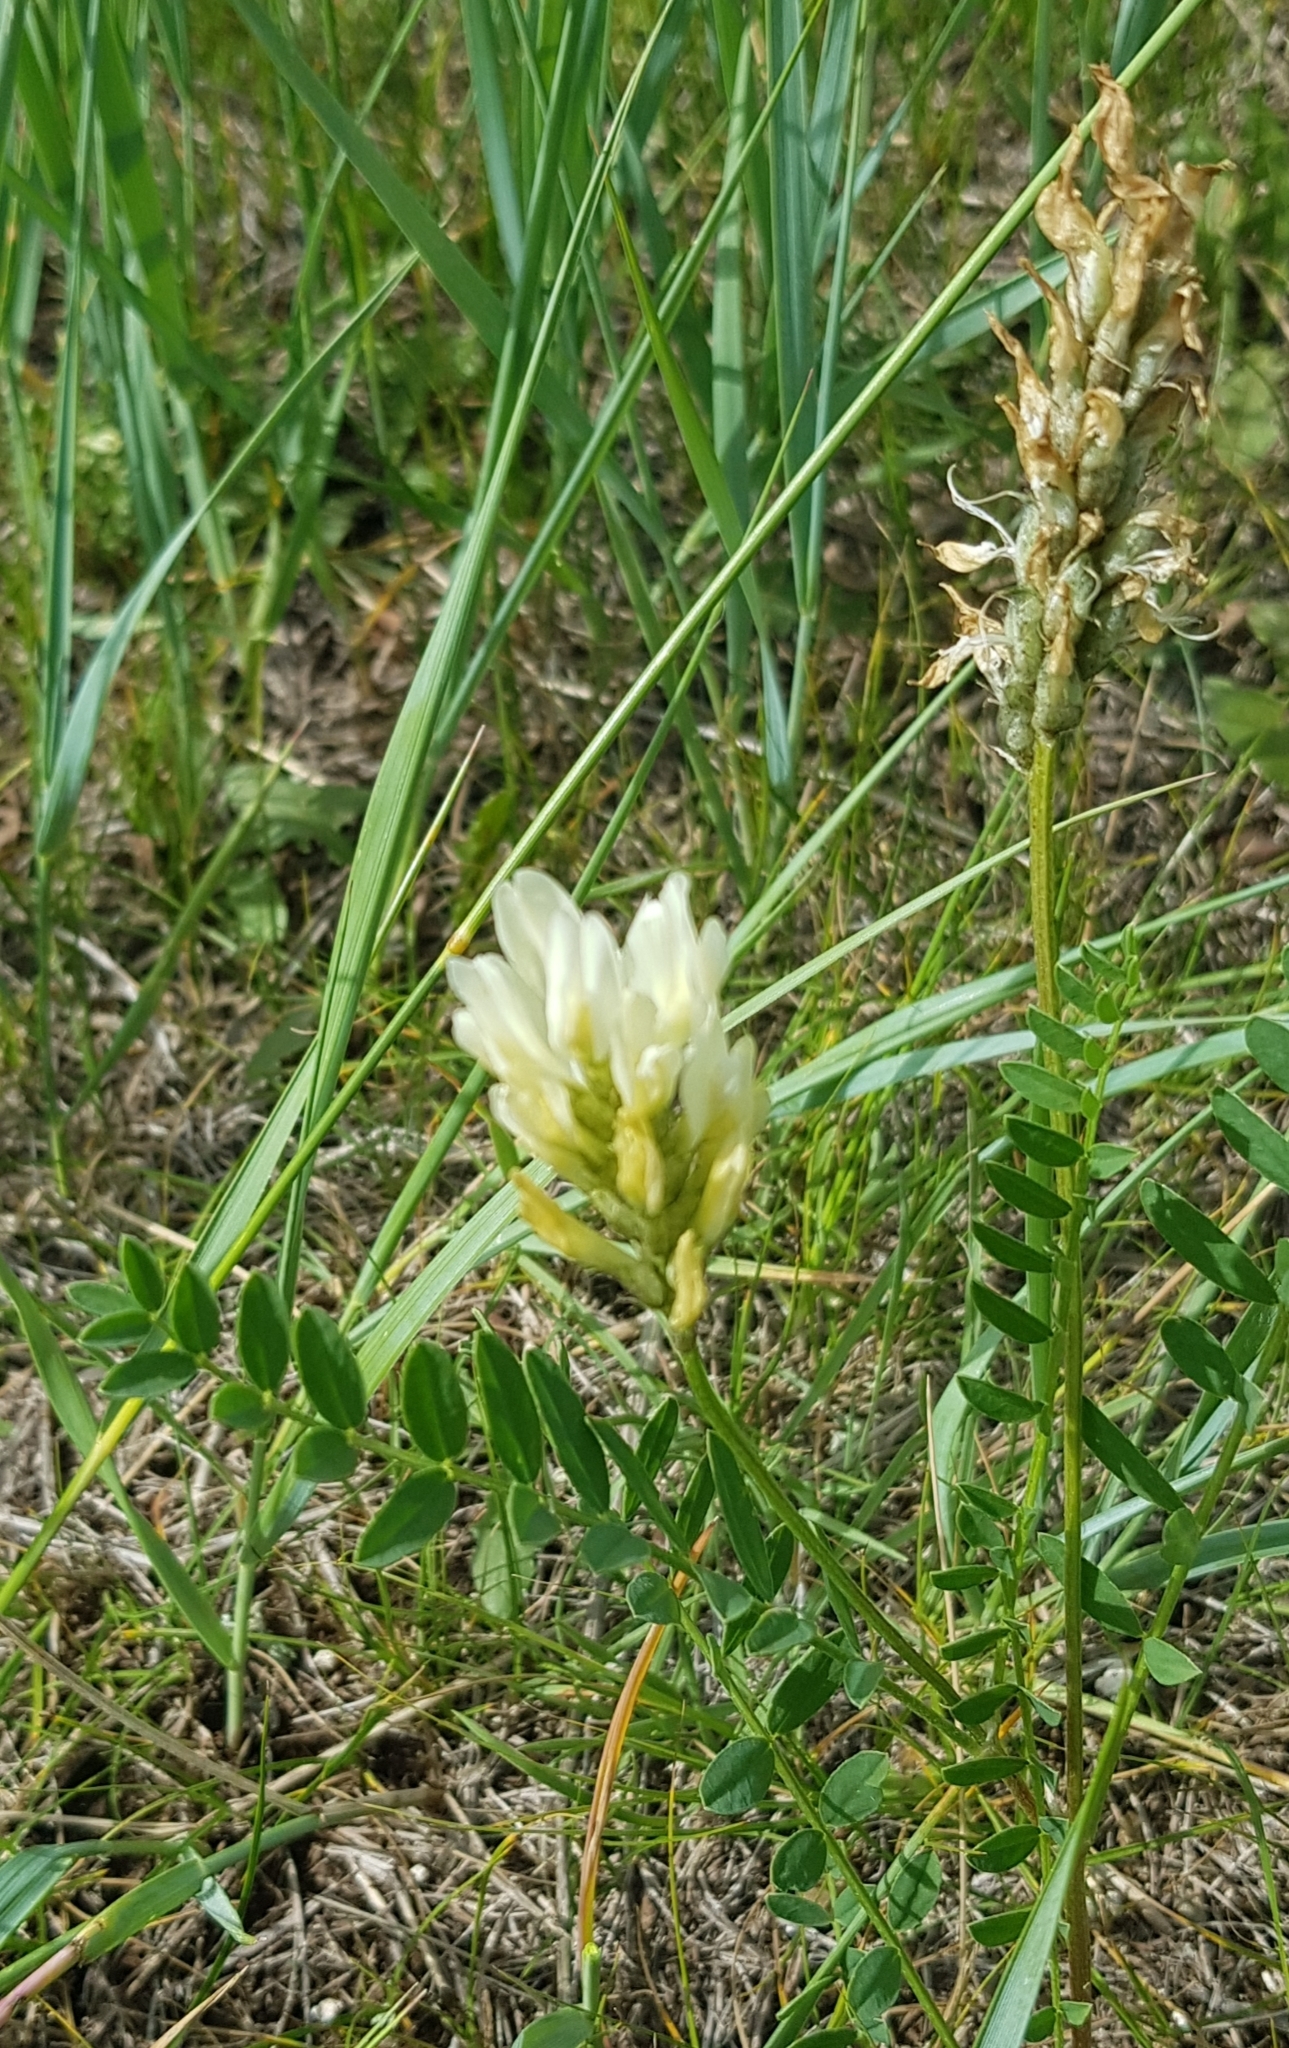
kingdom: Plantae
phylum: Tracheophyta
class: Magnoliopsida
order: Fabales
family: Fabaceae
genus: Astragalus
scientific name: Astragalus laxmannii
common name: Laxmann's milk-vetch
